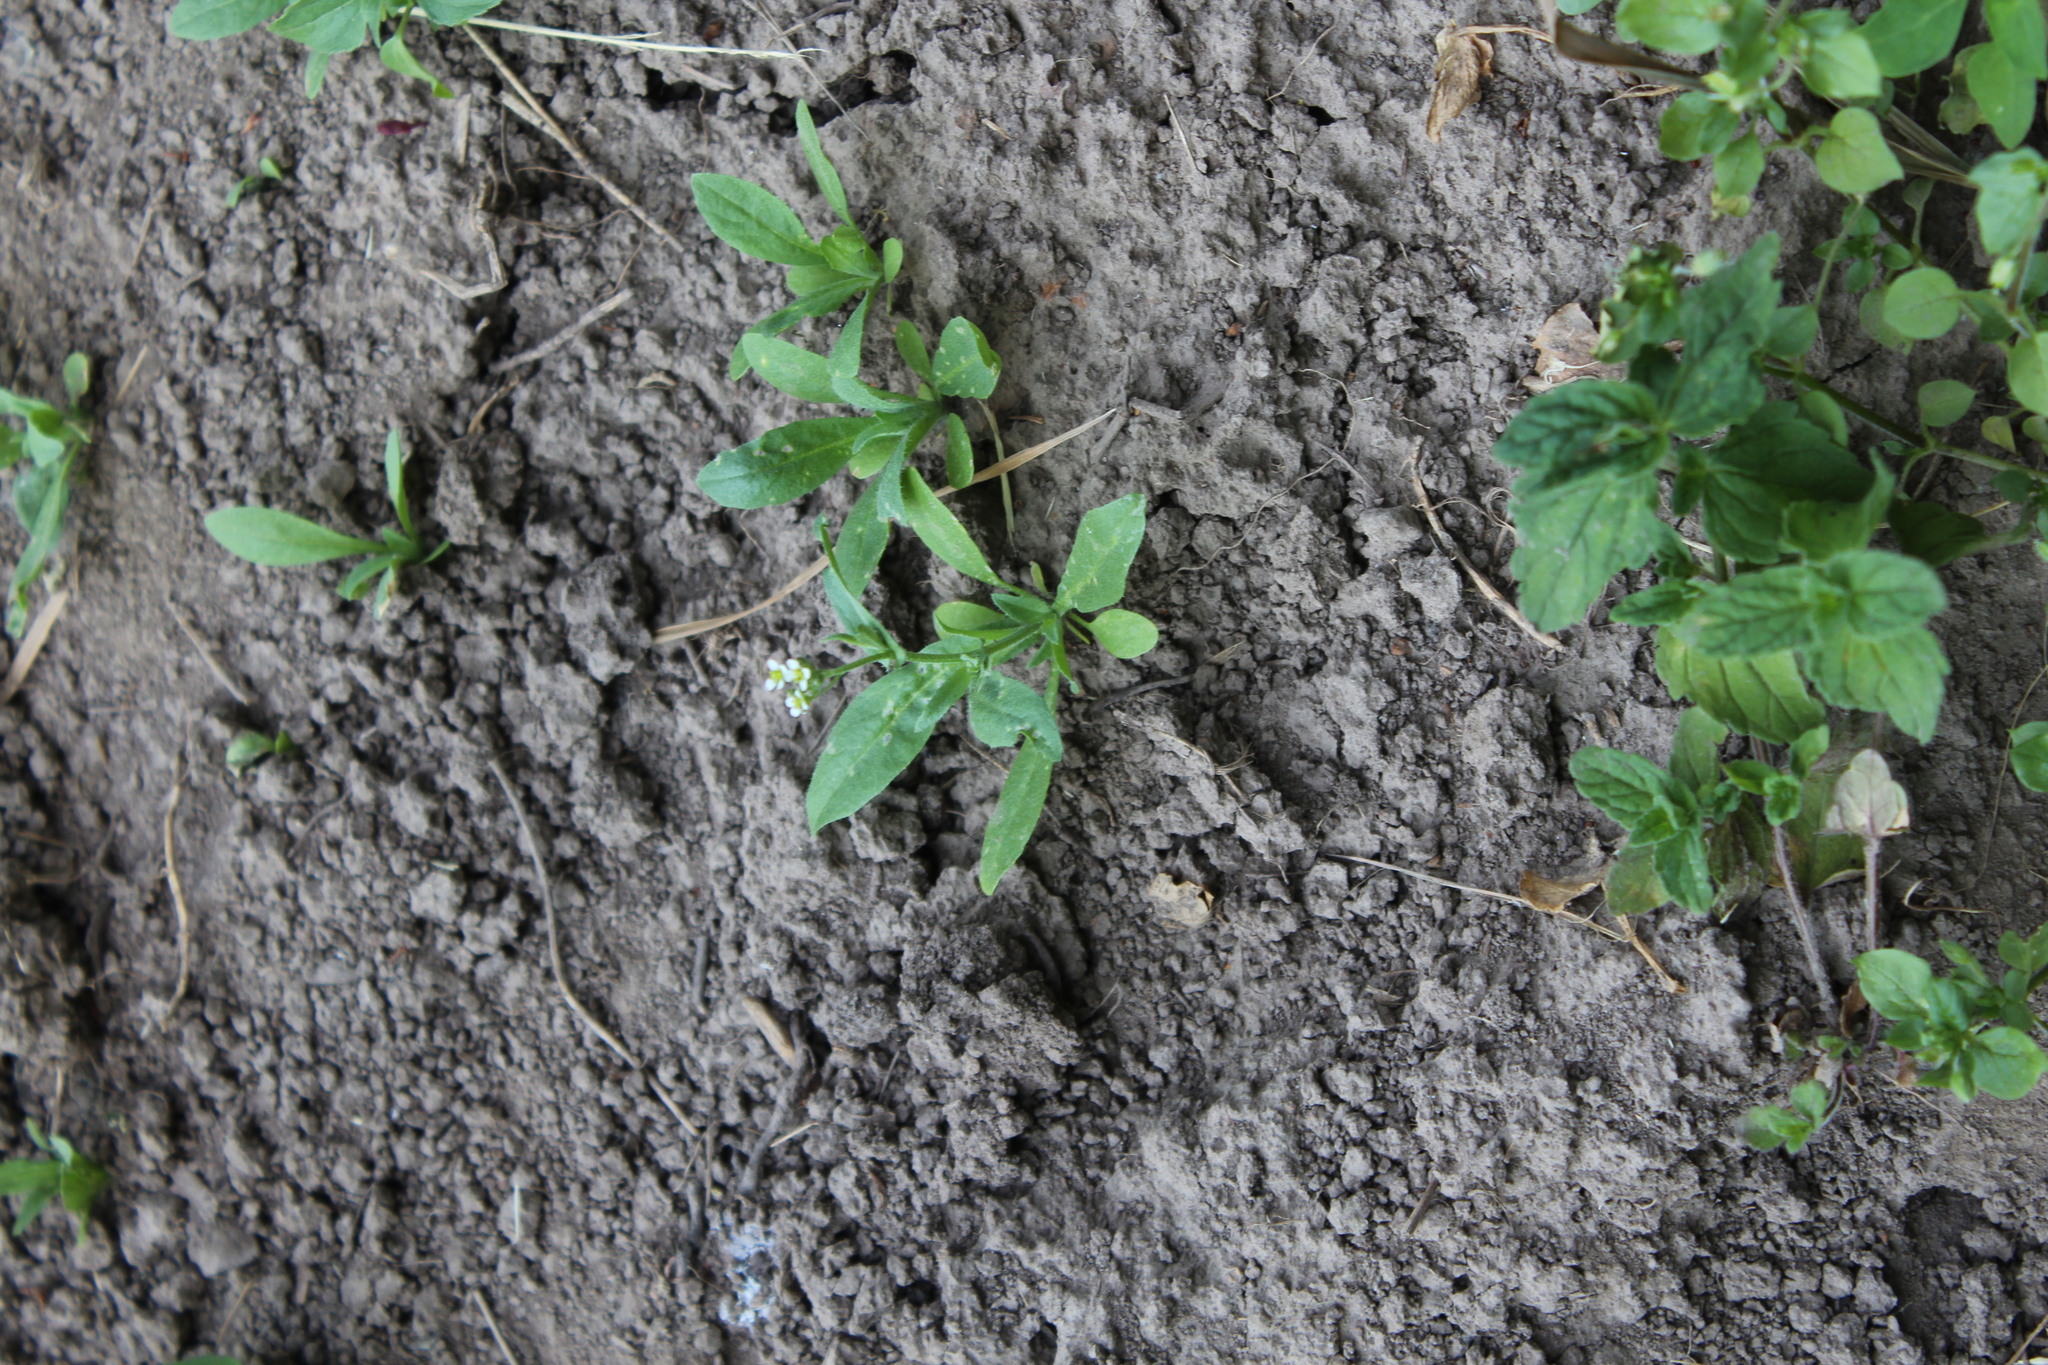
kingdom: Plantae
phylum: Tracheophyta
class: Magnoliopsida
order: Brassicales
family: Brassicaceae
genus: Capsella
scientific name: Capsella bursa-pastoris
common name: Shepherd's purse
